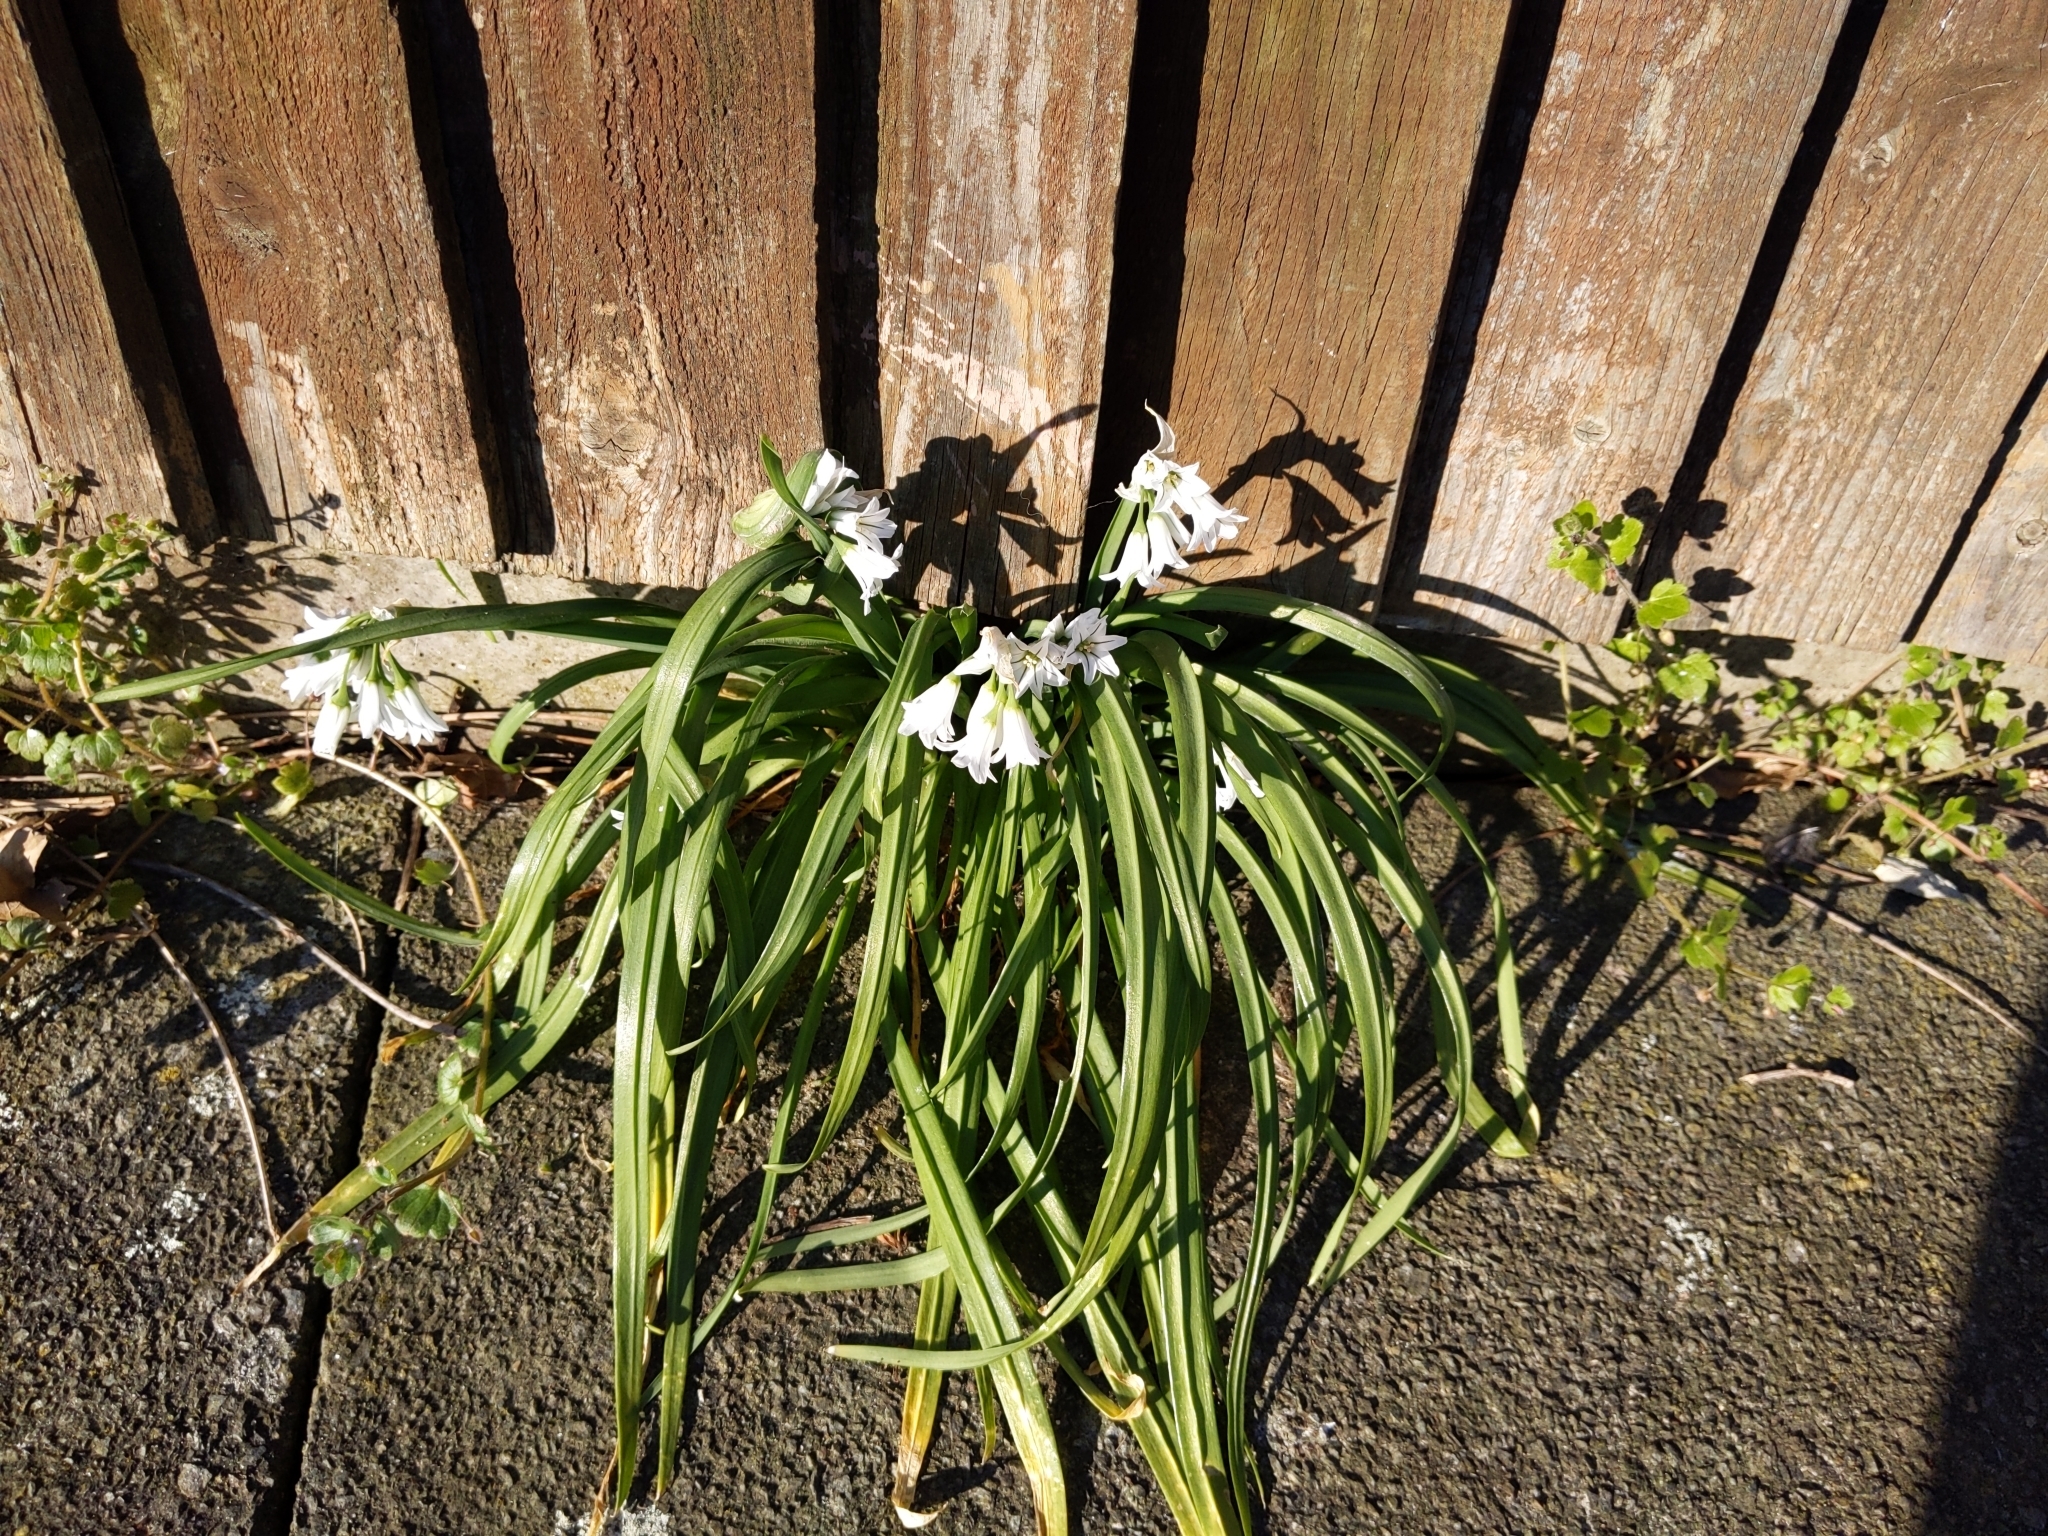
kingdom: Plantae
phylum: Tracheophyta
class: Liliopsida
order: Asparagales
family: Amaryllidaceae
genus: Allium
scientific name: Allium triquetrum
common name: Three-cornered garlic
